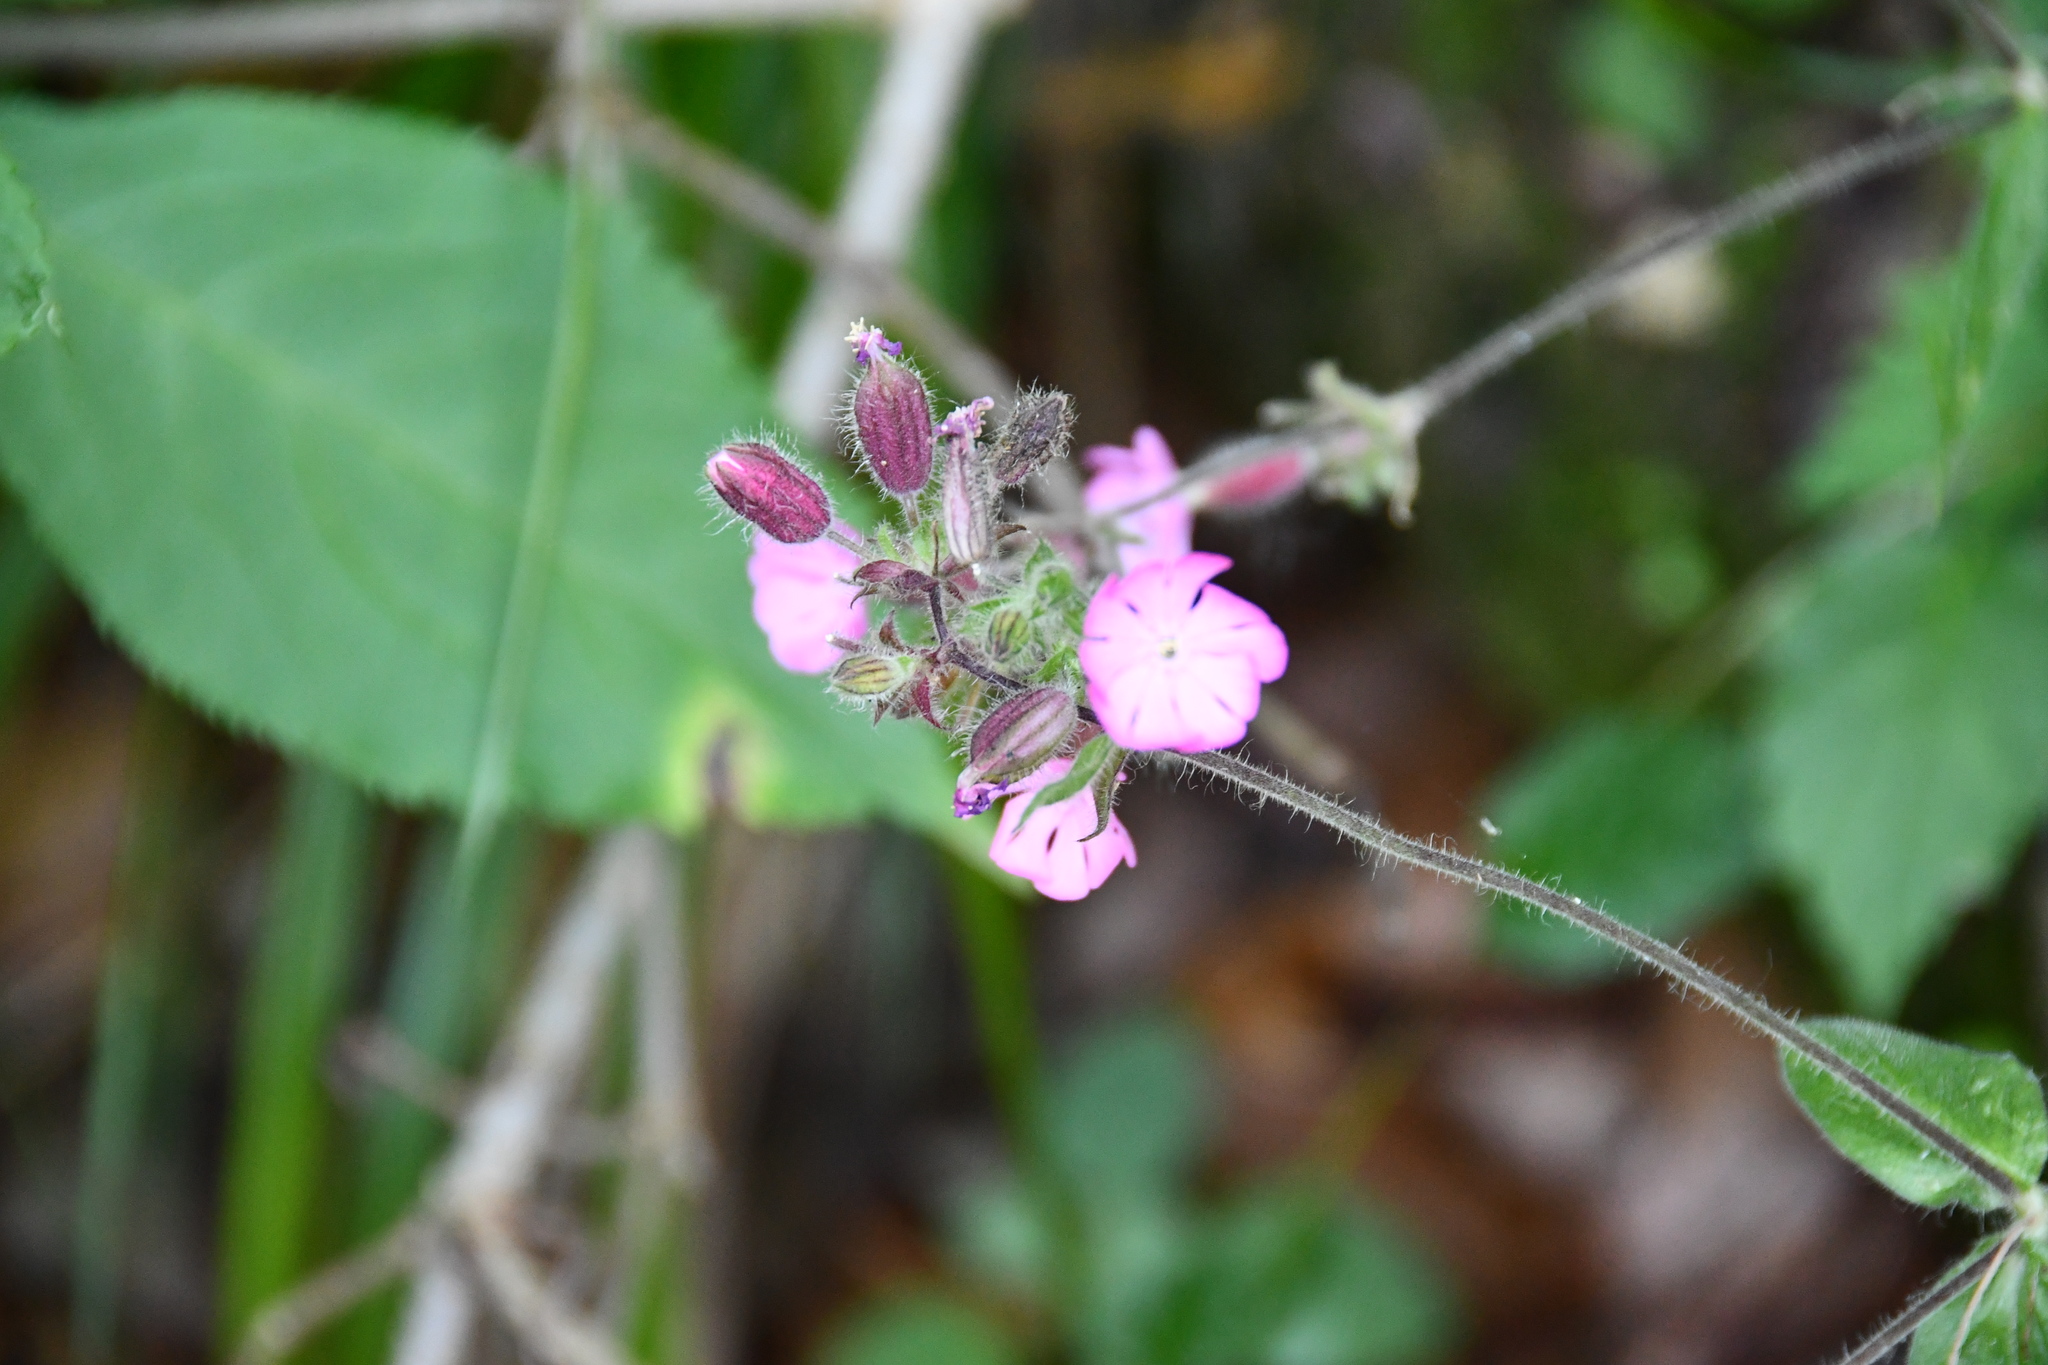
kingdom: Plantae
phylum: Tracheophyta
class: Magnoliopsida
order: Caryophyllales
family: Caryophyllaceae
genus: Silene
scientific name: Silene dioica
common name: Red campion
